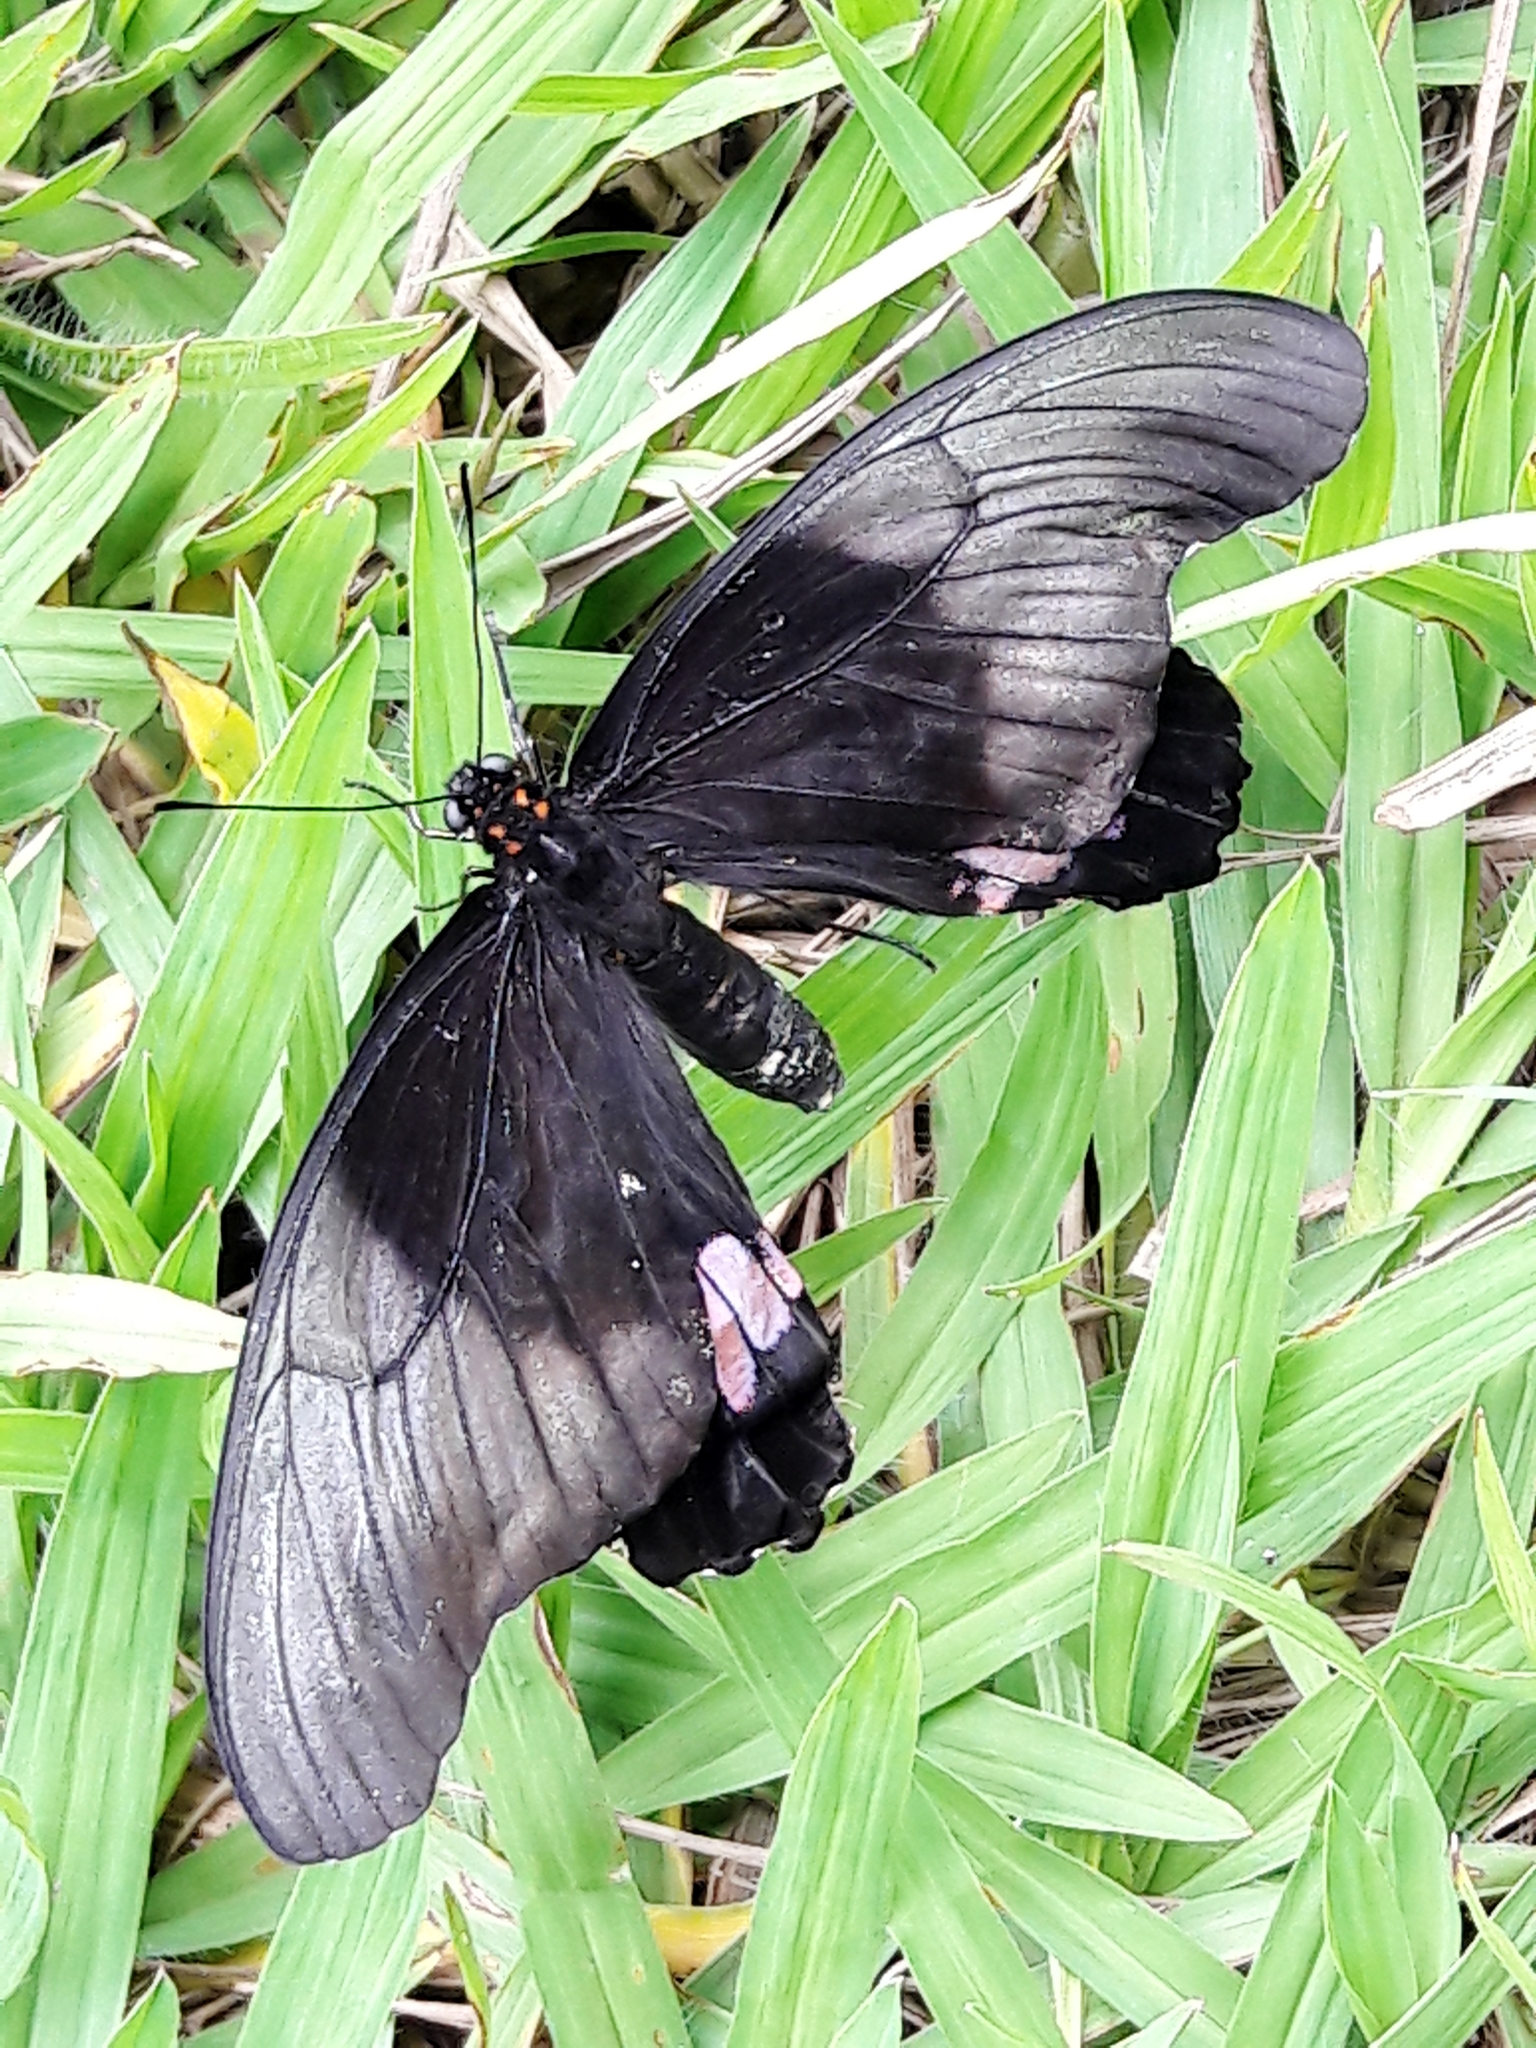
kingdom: Animalia
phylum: Arthropoda
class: Insecta
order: Lepidoptera
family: Papilionidae
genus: Papilio
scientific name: Papilio anchisiades
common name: Idaes swallowtail
